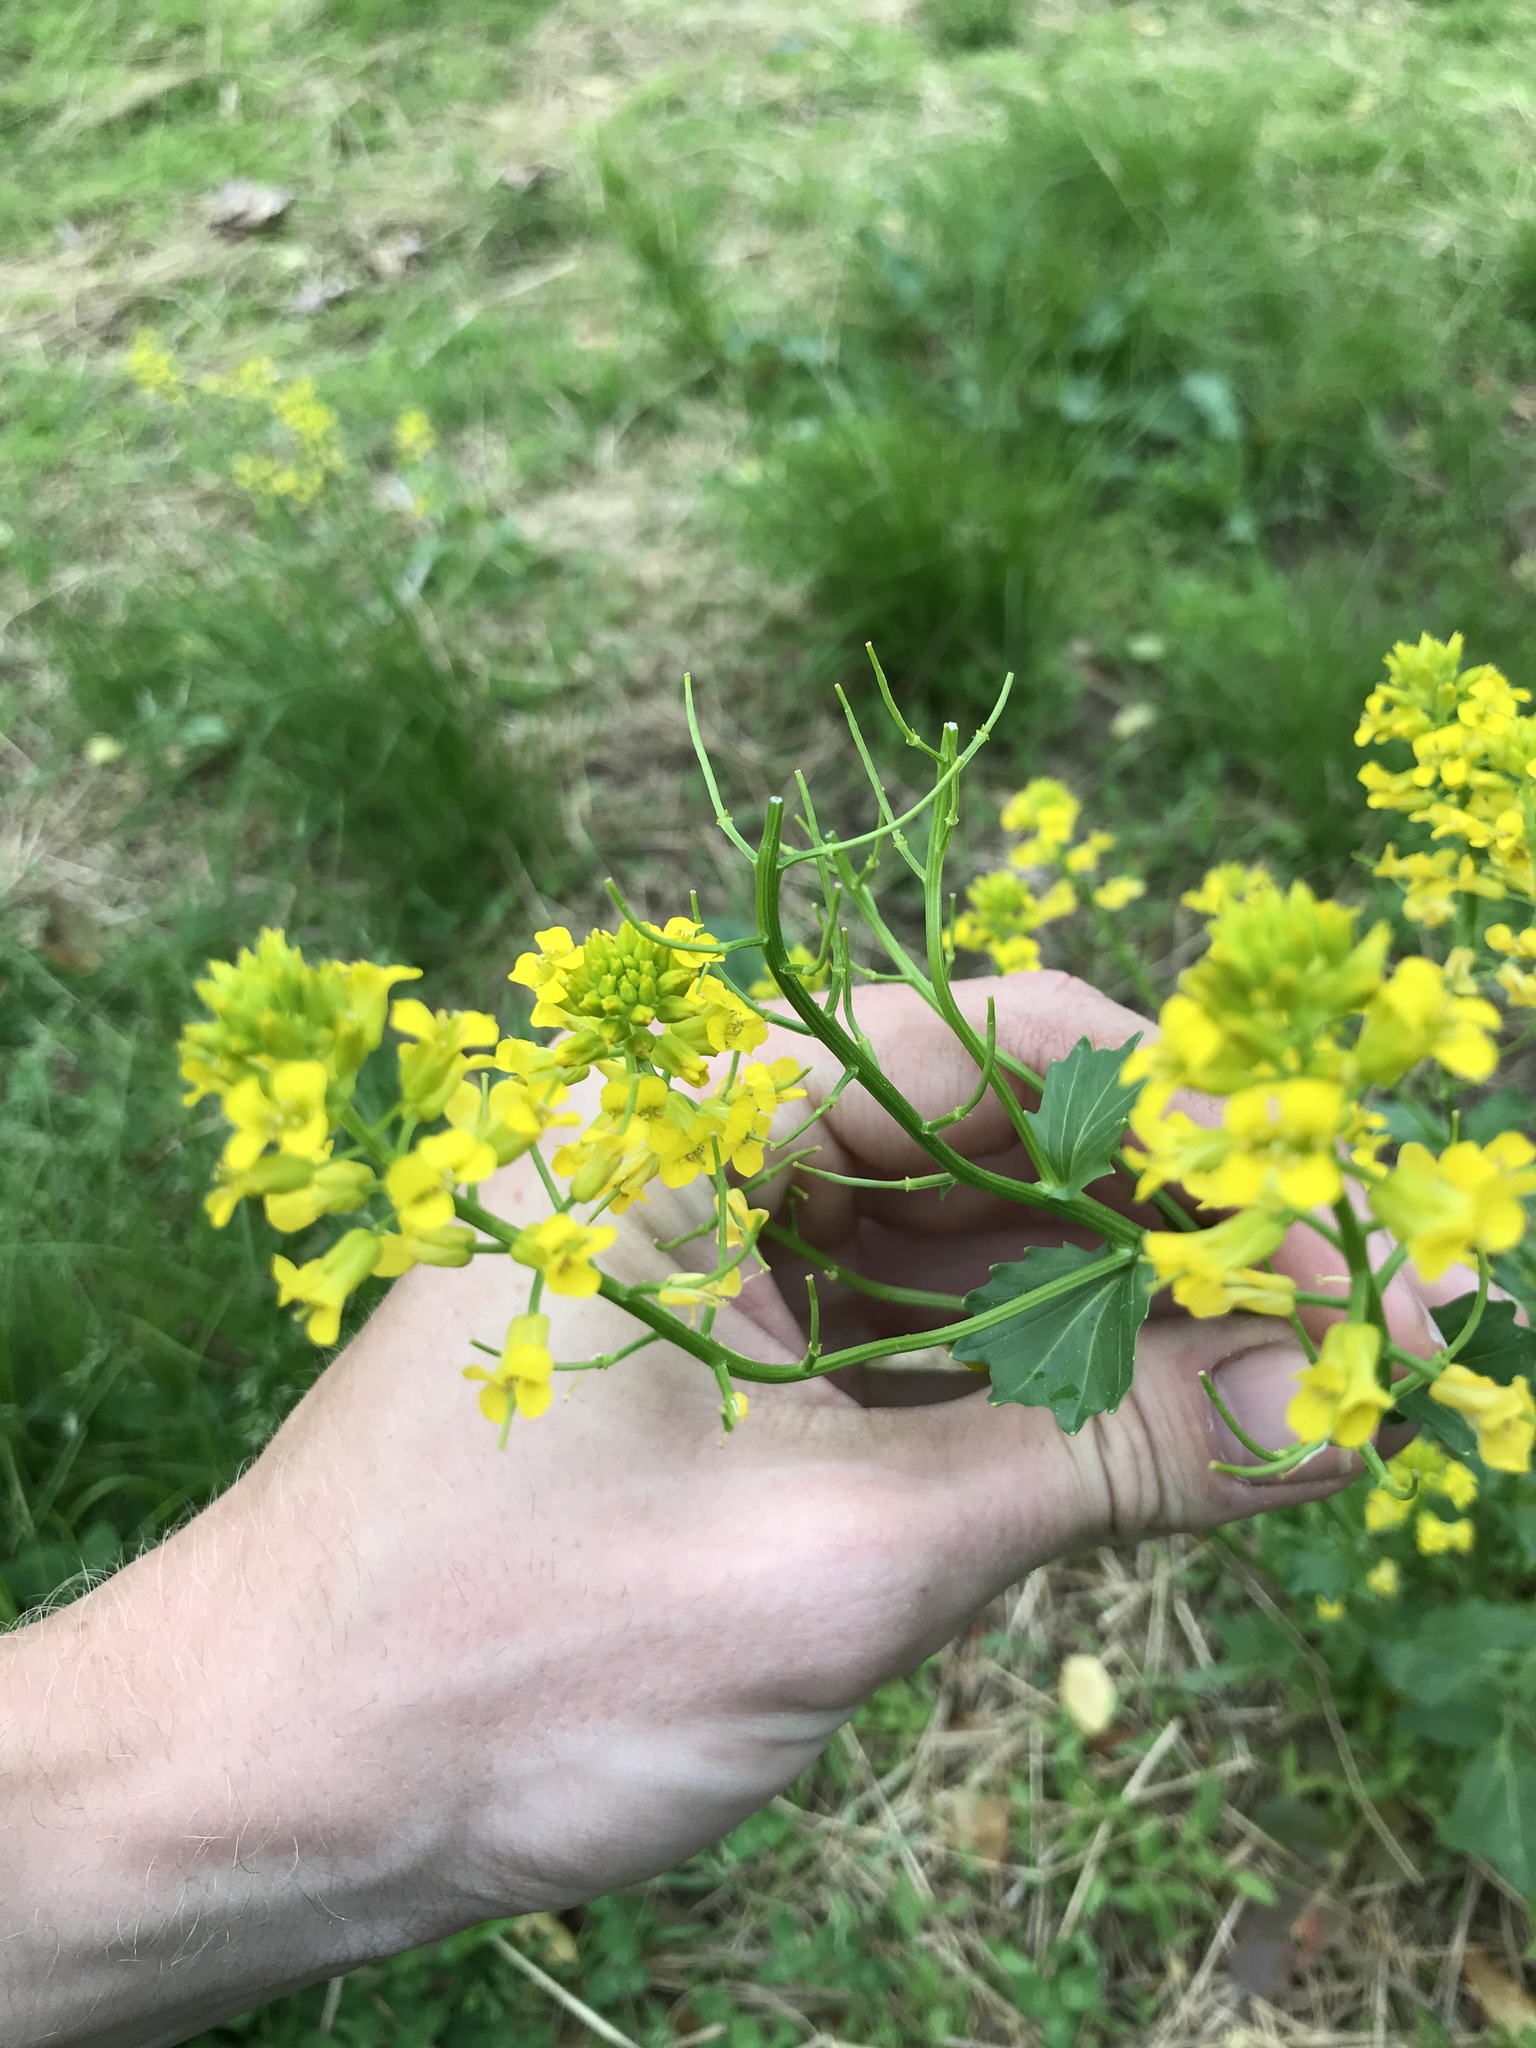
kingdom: Plantae
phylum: Tracheophyta
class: Magnoliopsida
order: Brassicales
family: Brassicaceae
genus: Barbarea
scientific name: Barbarea vulgaris
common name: Cressy-greens
